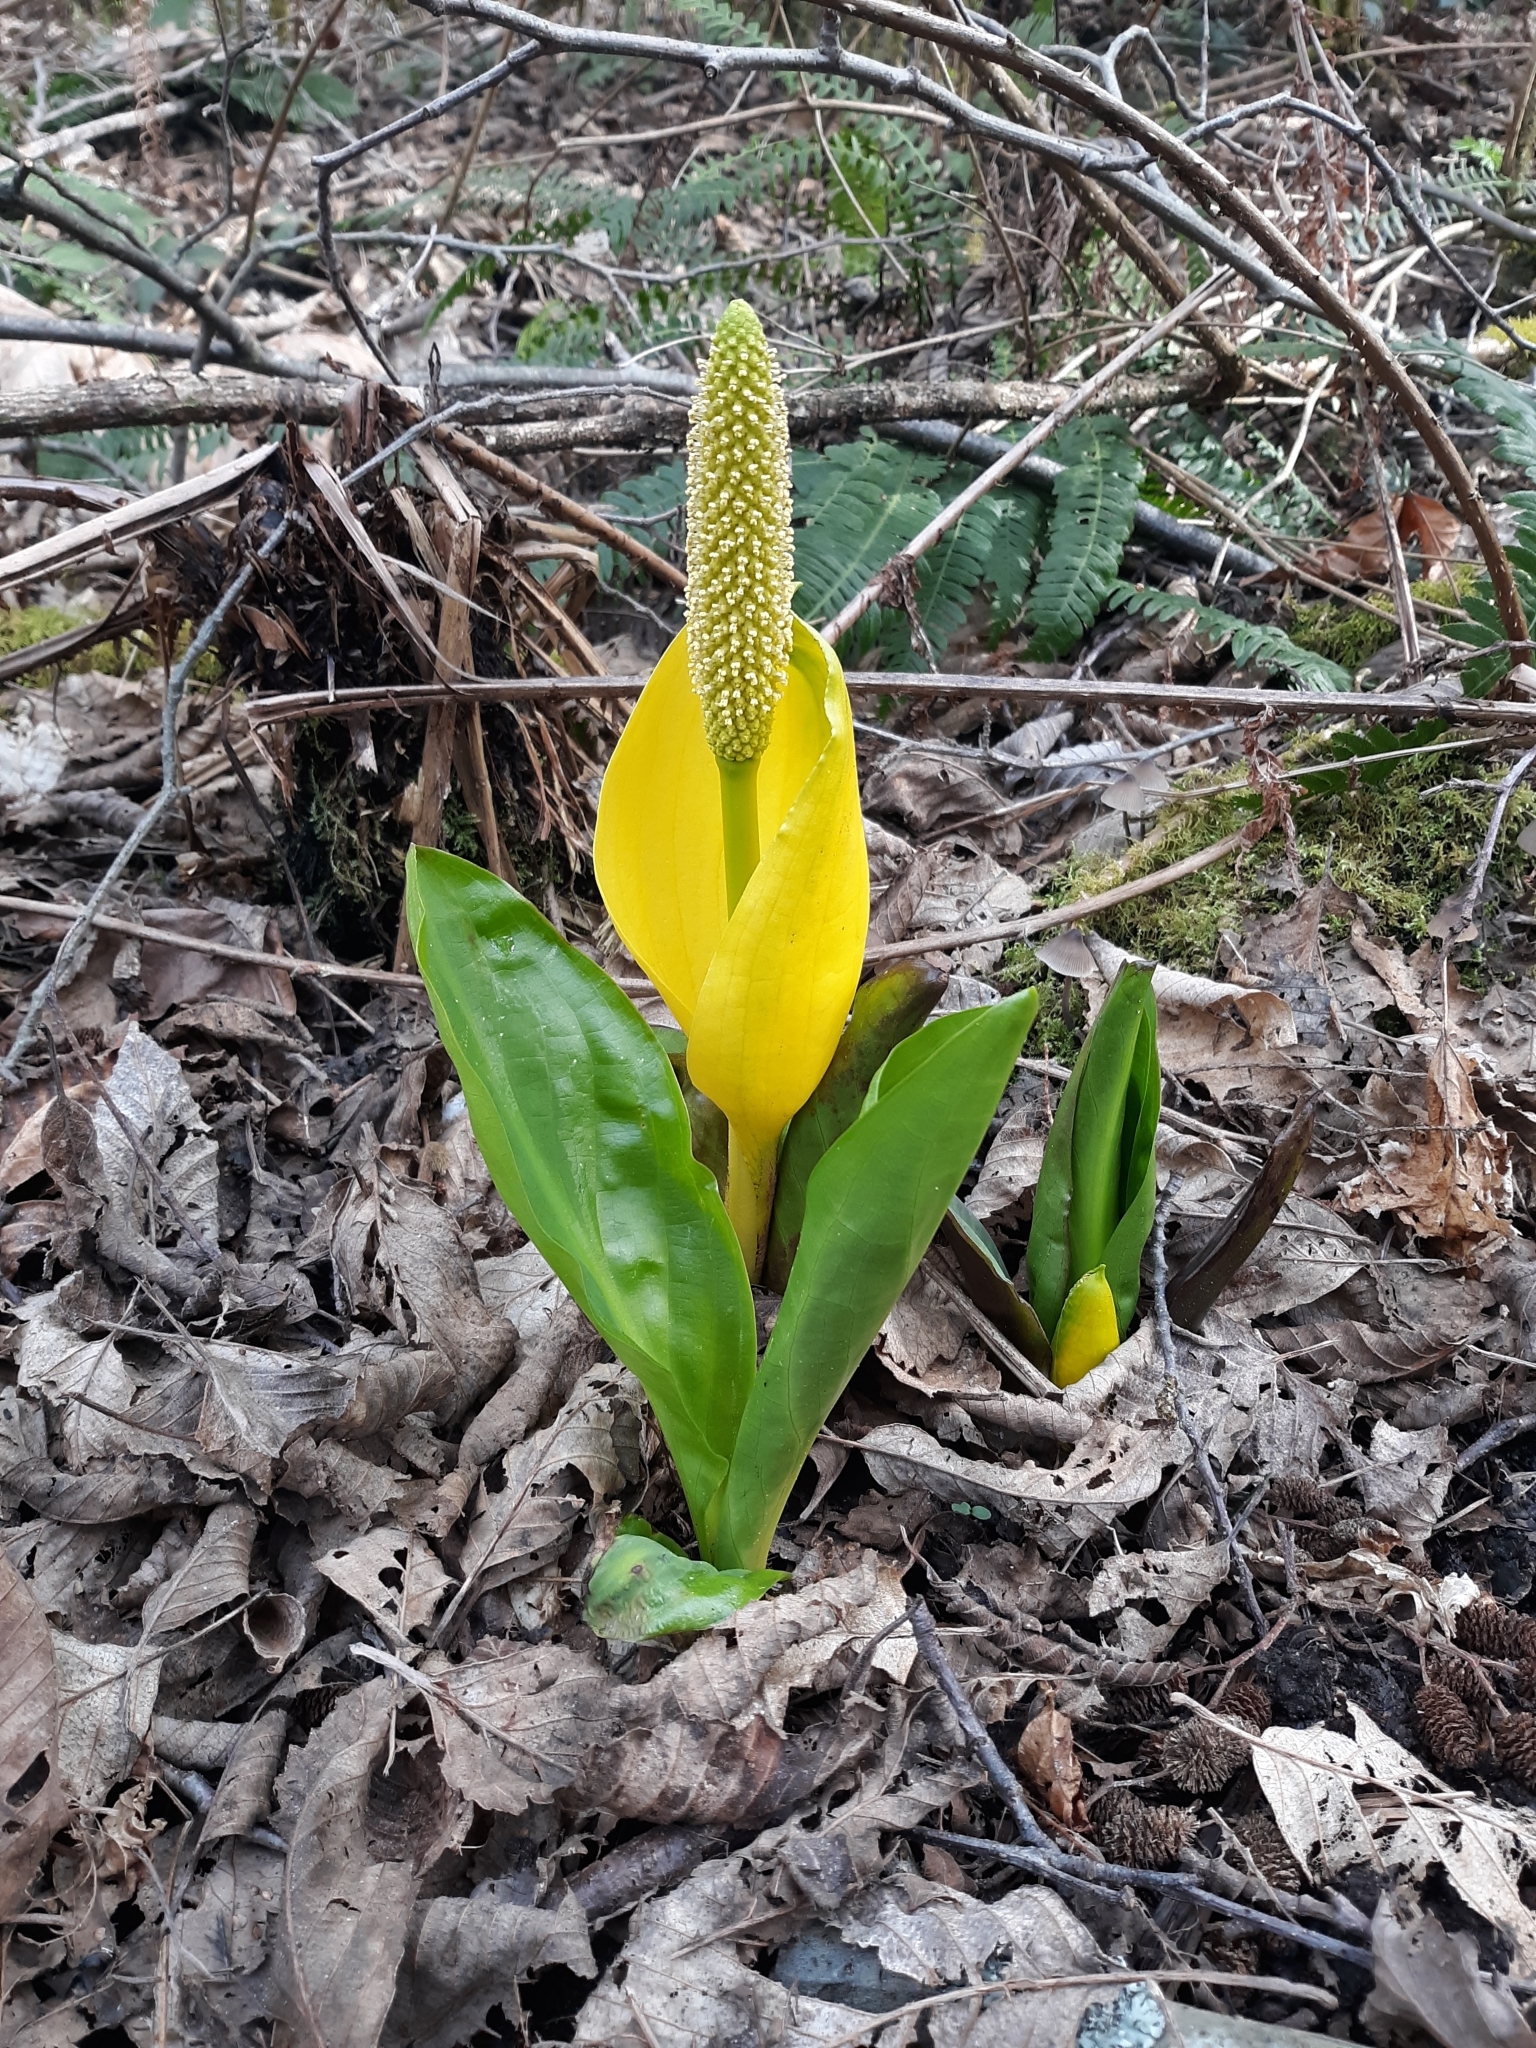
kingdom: Plantae
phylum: Tracheophyta
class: Liliopsida
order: Alismatales
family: Araceae
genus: Lysichiton
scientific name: Lysichiton americanus
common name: American skunk cabbage
